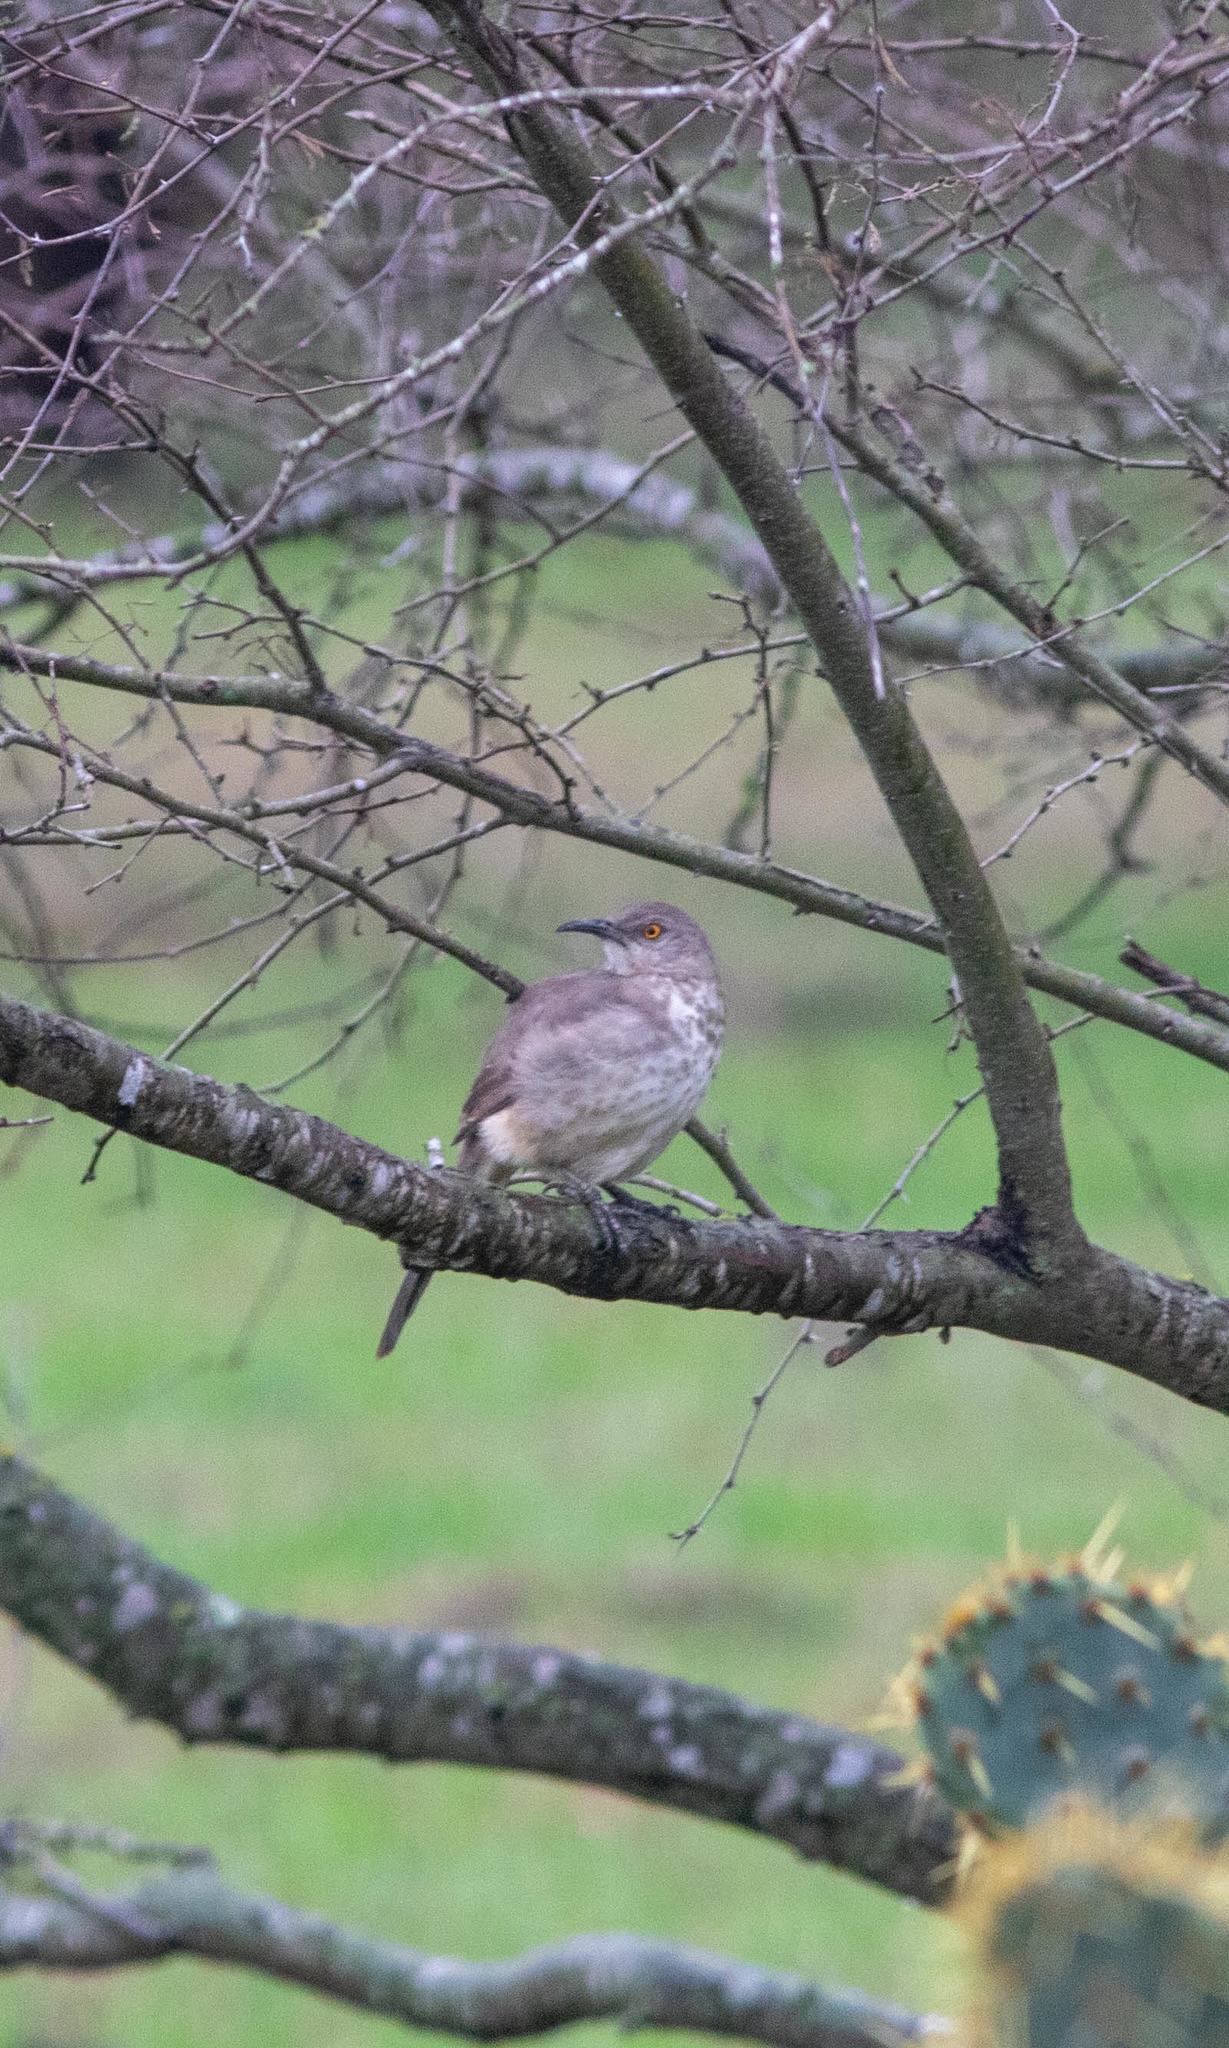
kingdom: Animalia
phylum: Chordata
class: Aves
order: Passeriformes
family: Mimidae
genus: Toxostoma
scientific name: Toxostoma curvirostre
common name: Curve-billed thrasher
